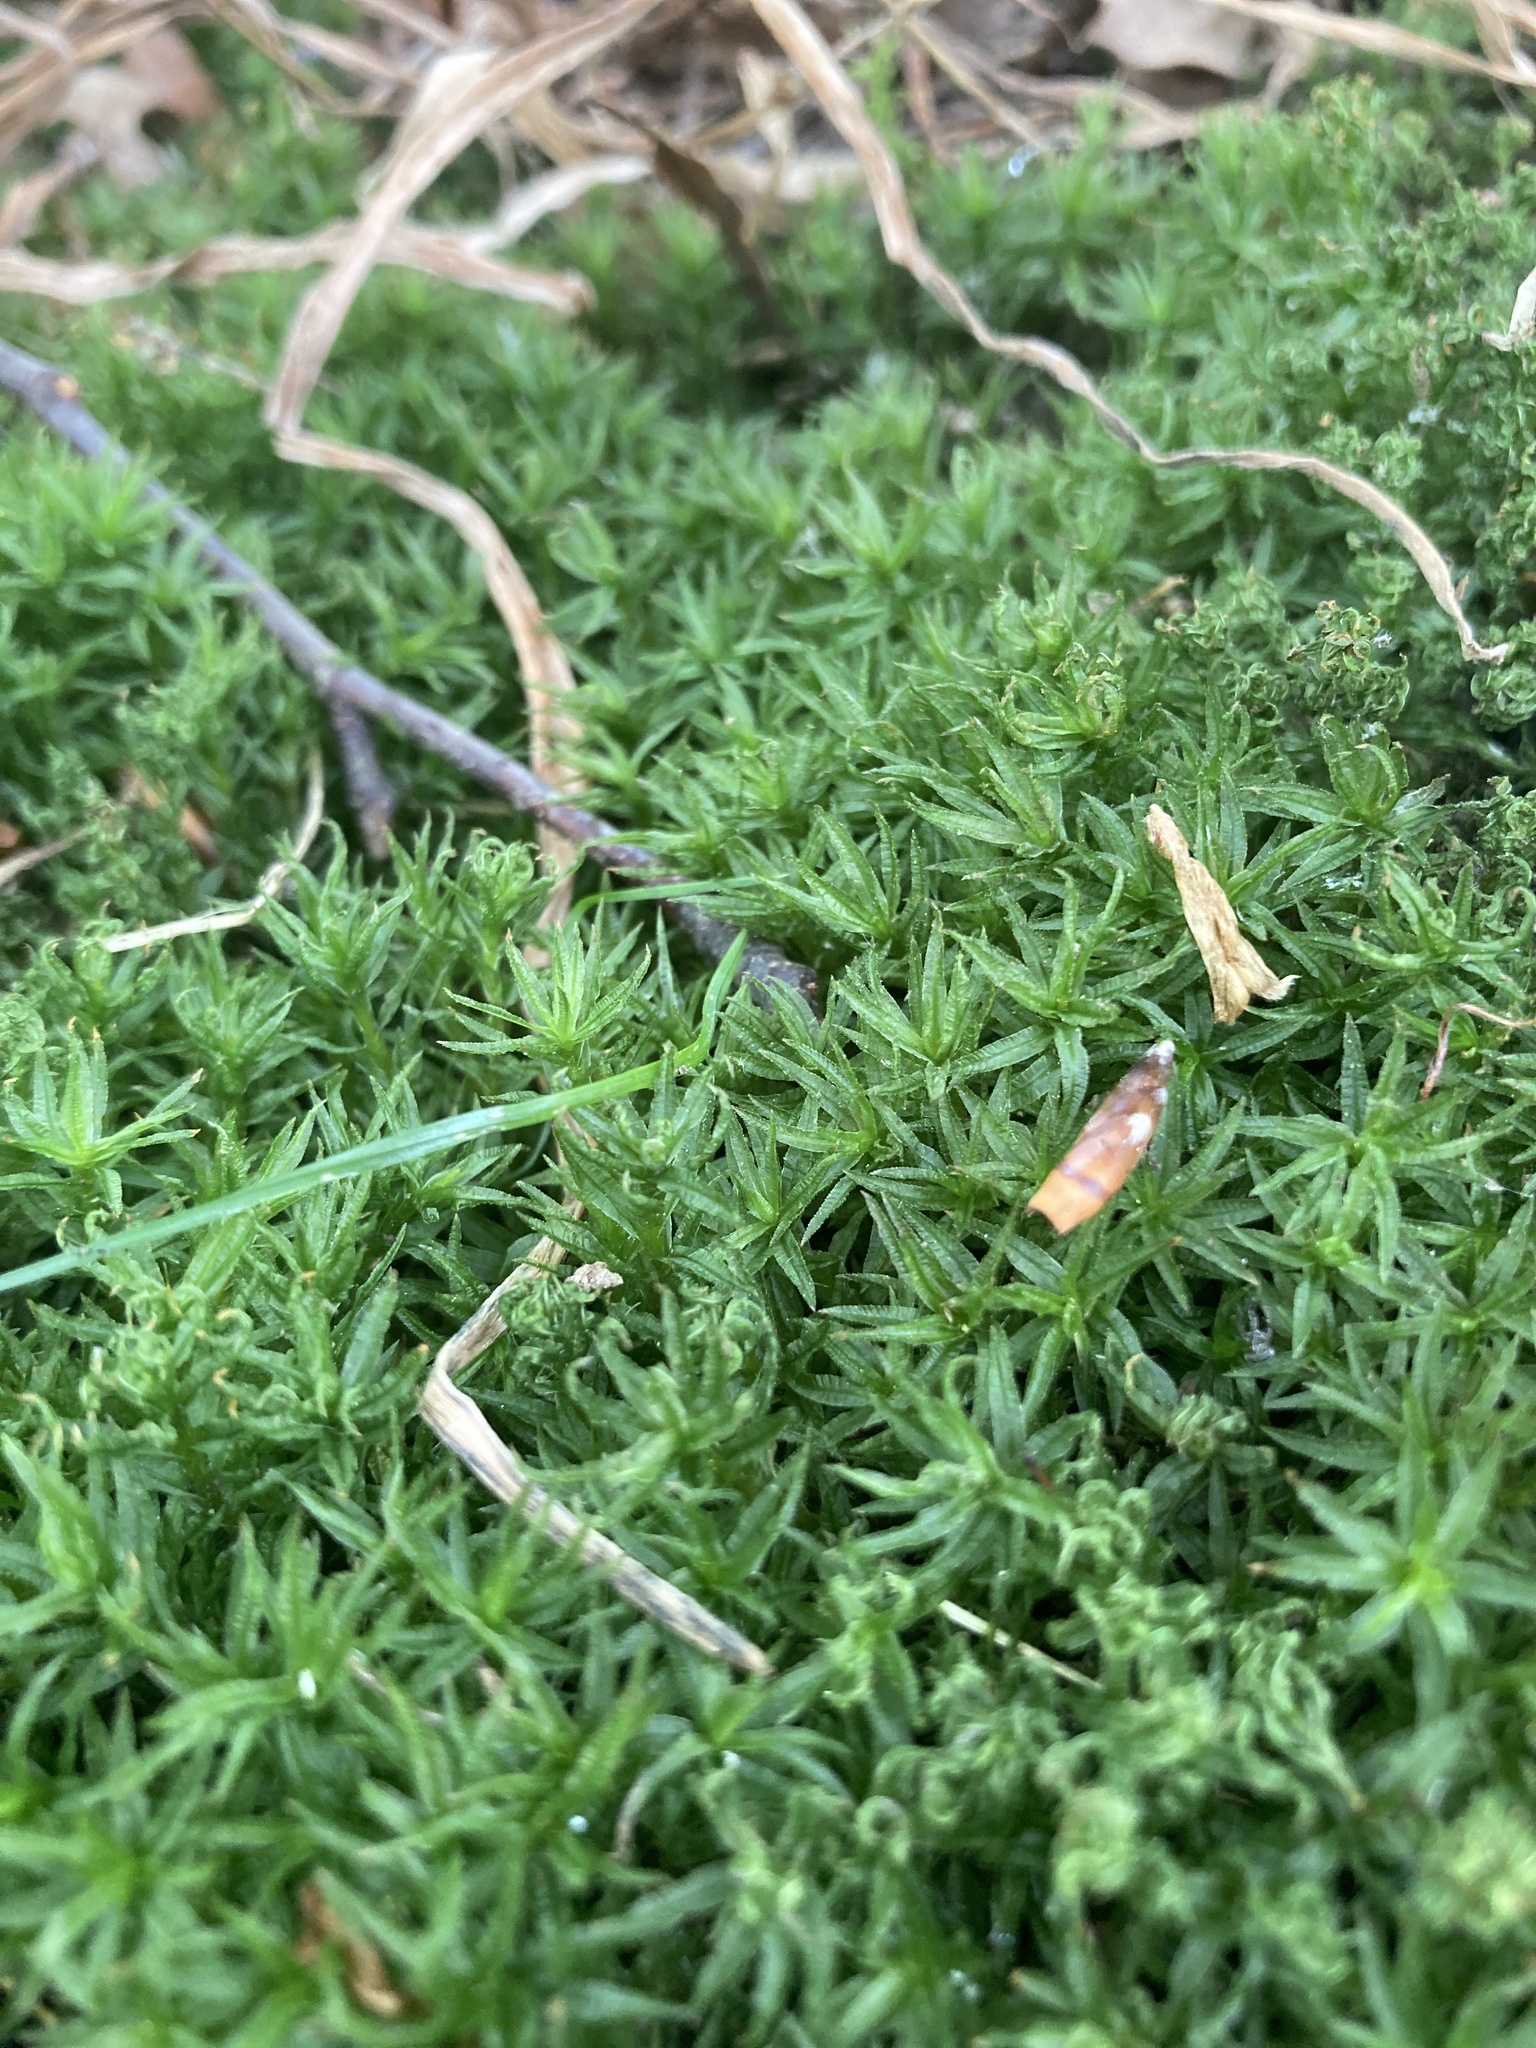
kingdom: Plantae
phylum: Bryophyta
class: Polytrichopsida
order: Polytrichales
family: Polytrichaceae
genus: Atrichum
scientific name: Atrichum undulatum
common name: Common smoothcap
